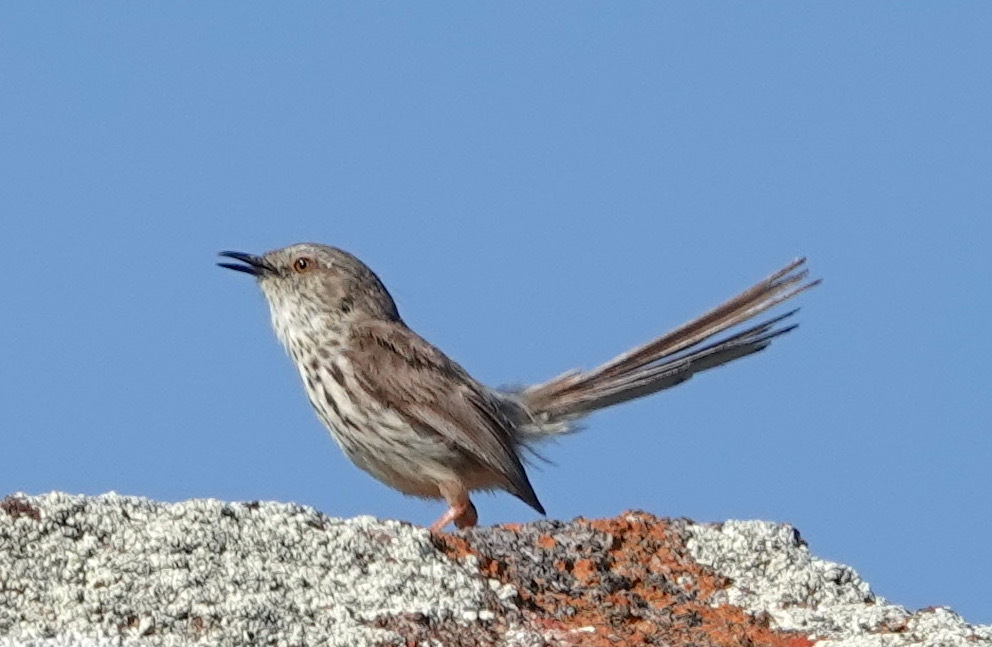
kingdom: Animalia
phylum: Chordata
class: Aves
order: Passeriformes
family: Cisticolidae
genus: Prinia
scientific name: Prinia maculosa
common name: Karoo prinia
